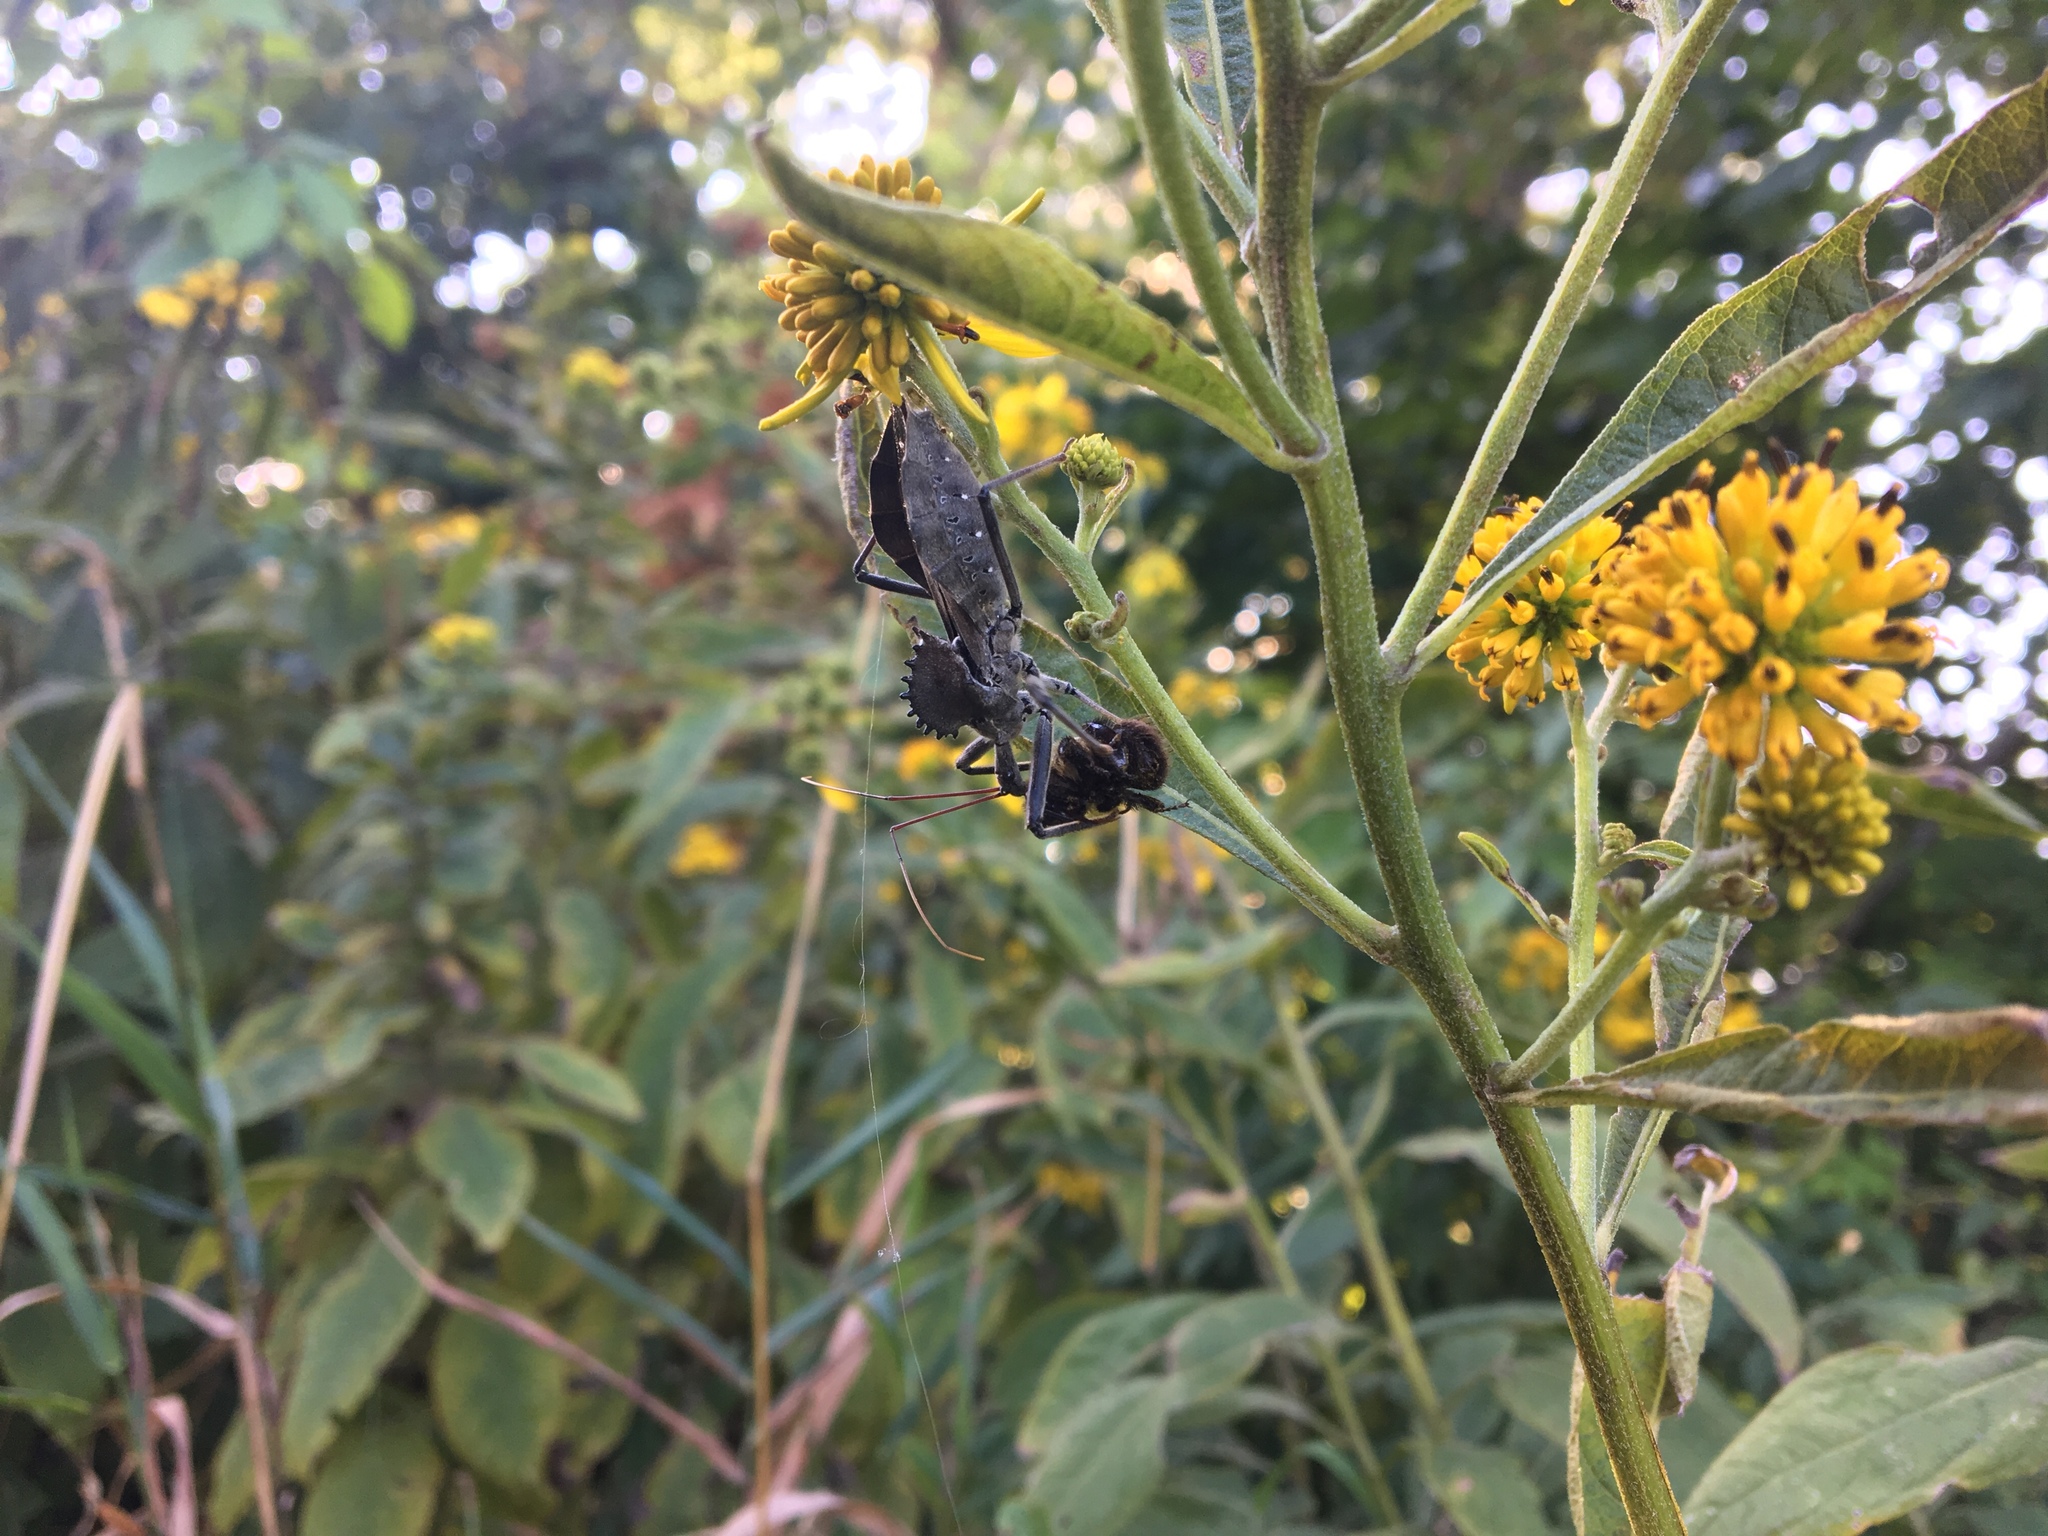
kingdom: Animalia
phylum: Arthropoda
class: Insecta
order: Hemiptera
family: Reduviidae
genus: Arilus
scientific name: Arilus cristatus
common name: North american wheel bug
